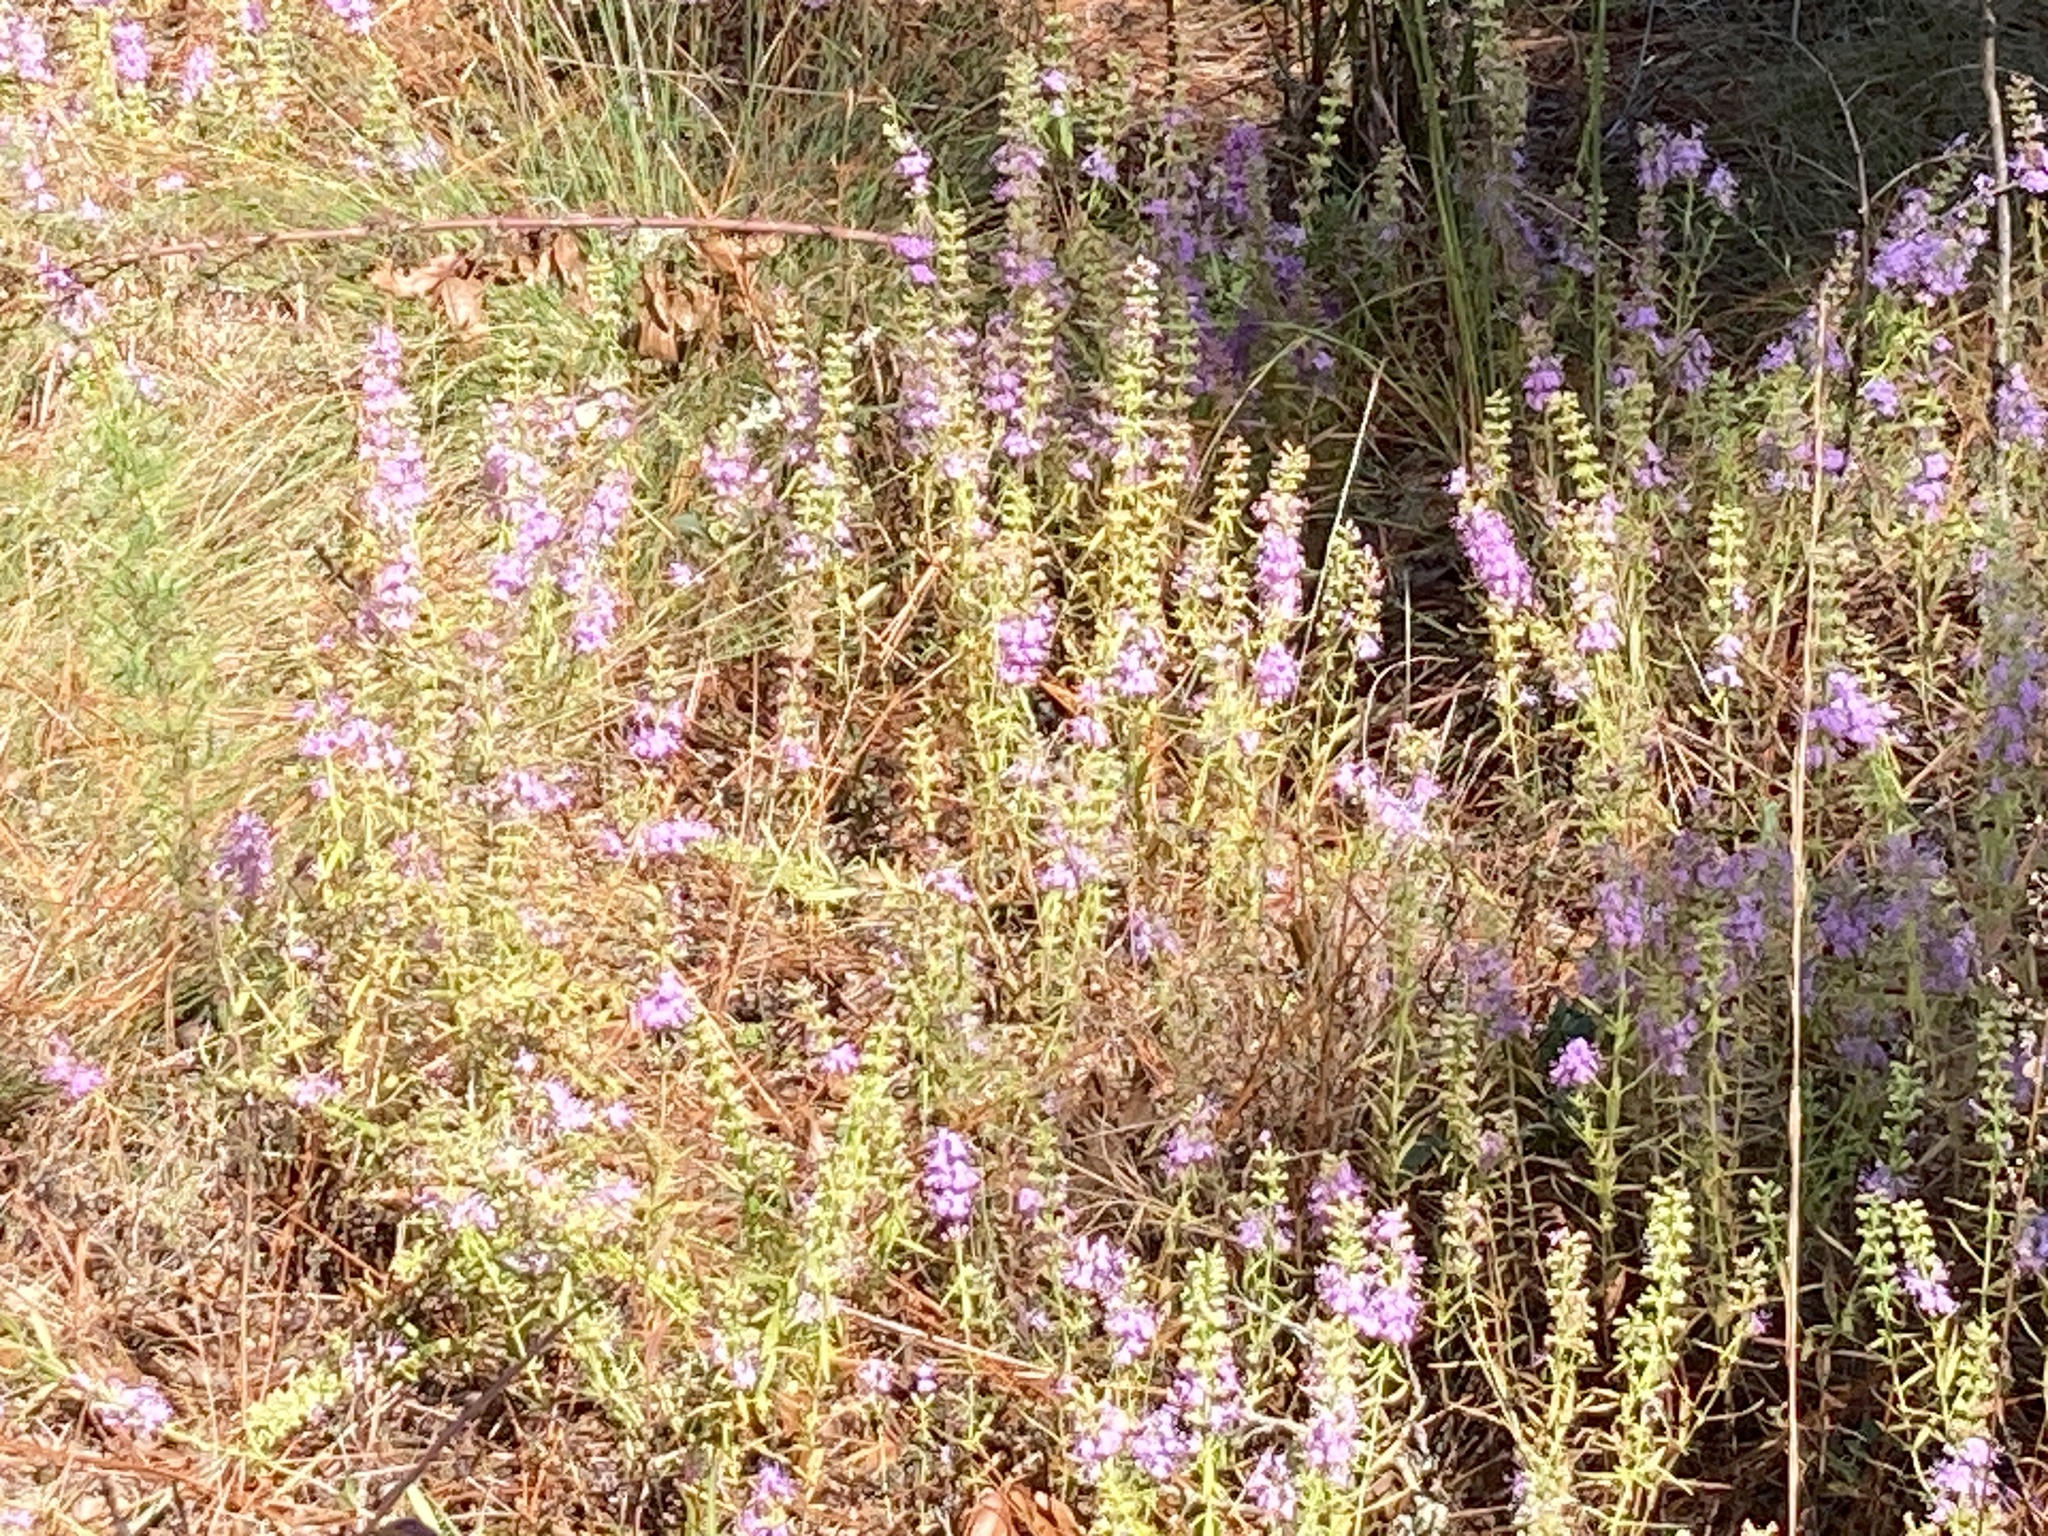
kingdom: Plantae
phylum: Tracheophyta
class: Magnoliopsida
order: Lamiales
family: Lamiaceae
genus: Dicerandra
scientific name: Dicerandra densiflora
